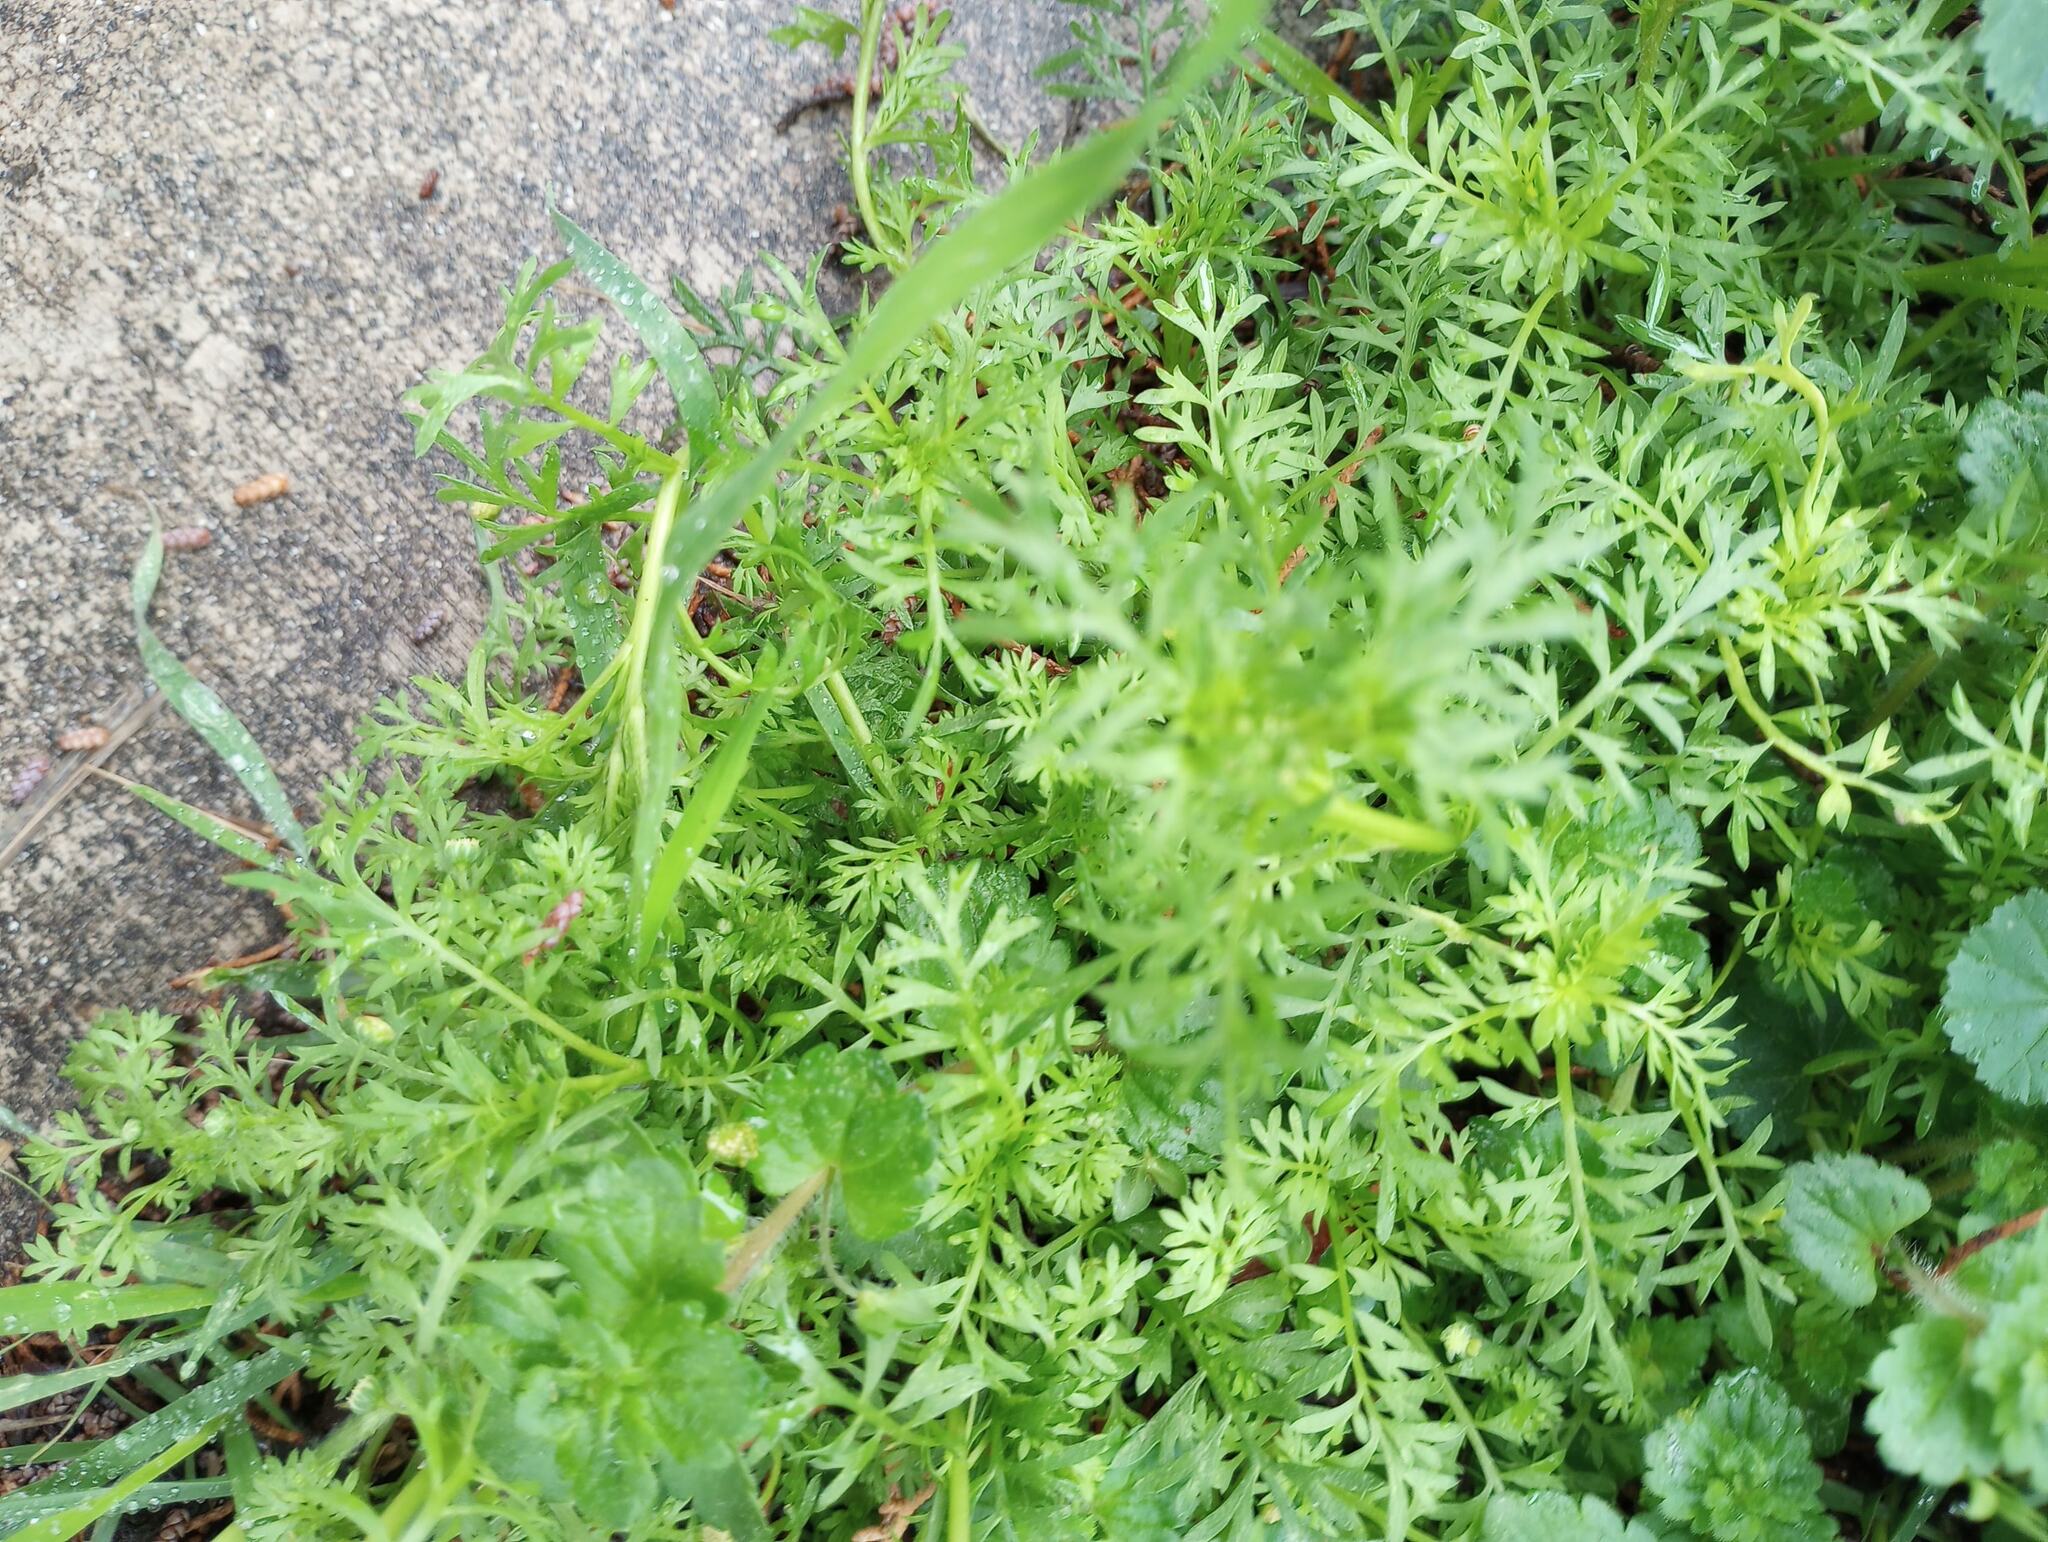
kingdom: Plantae
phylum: Tracheophyta
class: Magnoliopsida
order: Brassicales
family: Brassicaceae
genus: Lepidium
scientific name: Lepidium didymum
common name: Lesser swinecress
